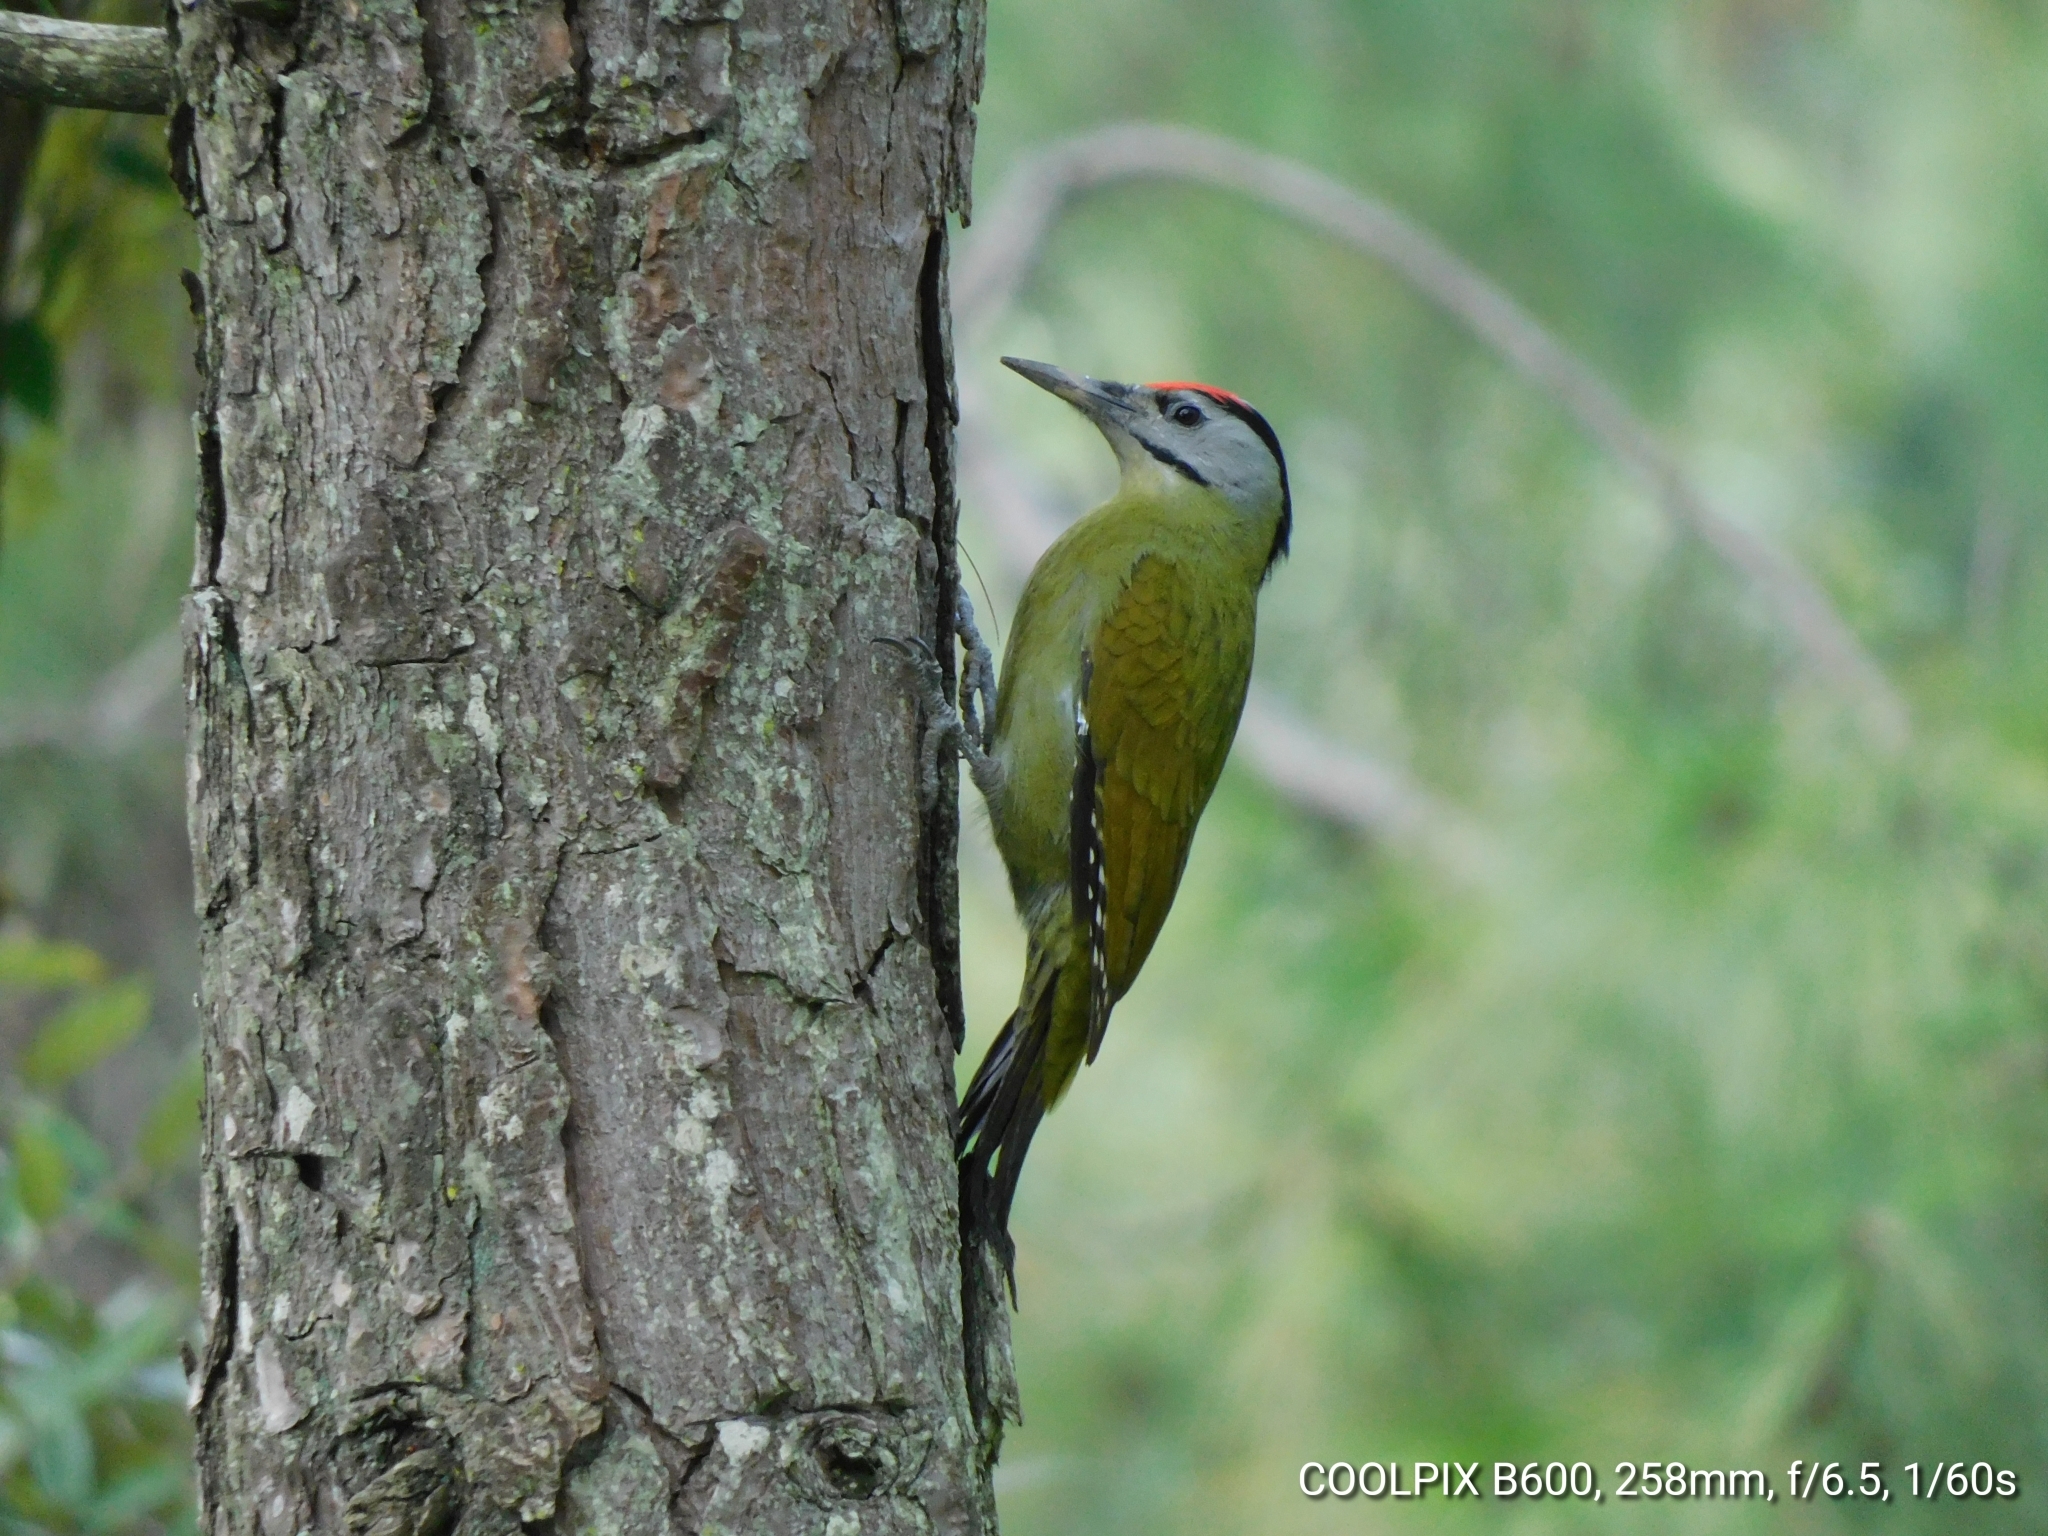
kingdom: Animalia
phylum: Chordata
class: Aves
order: Piciformes
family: Picidae
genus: Picus
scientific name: Picus canus
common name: Grey-headed woodpecker
